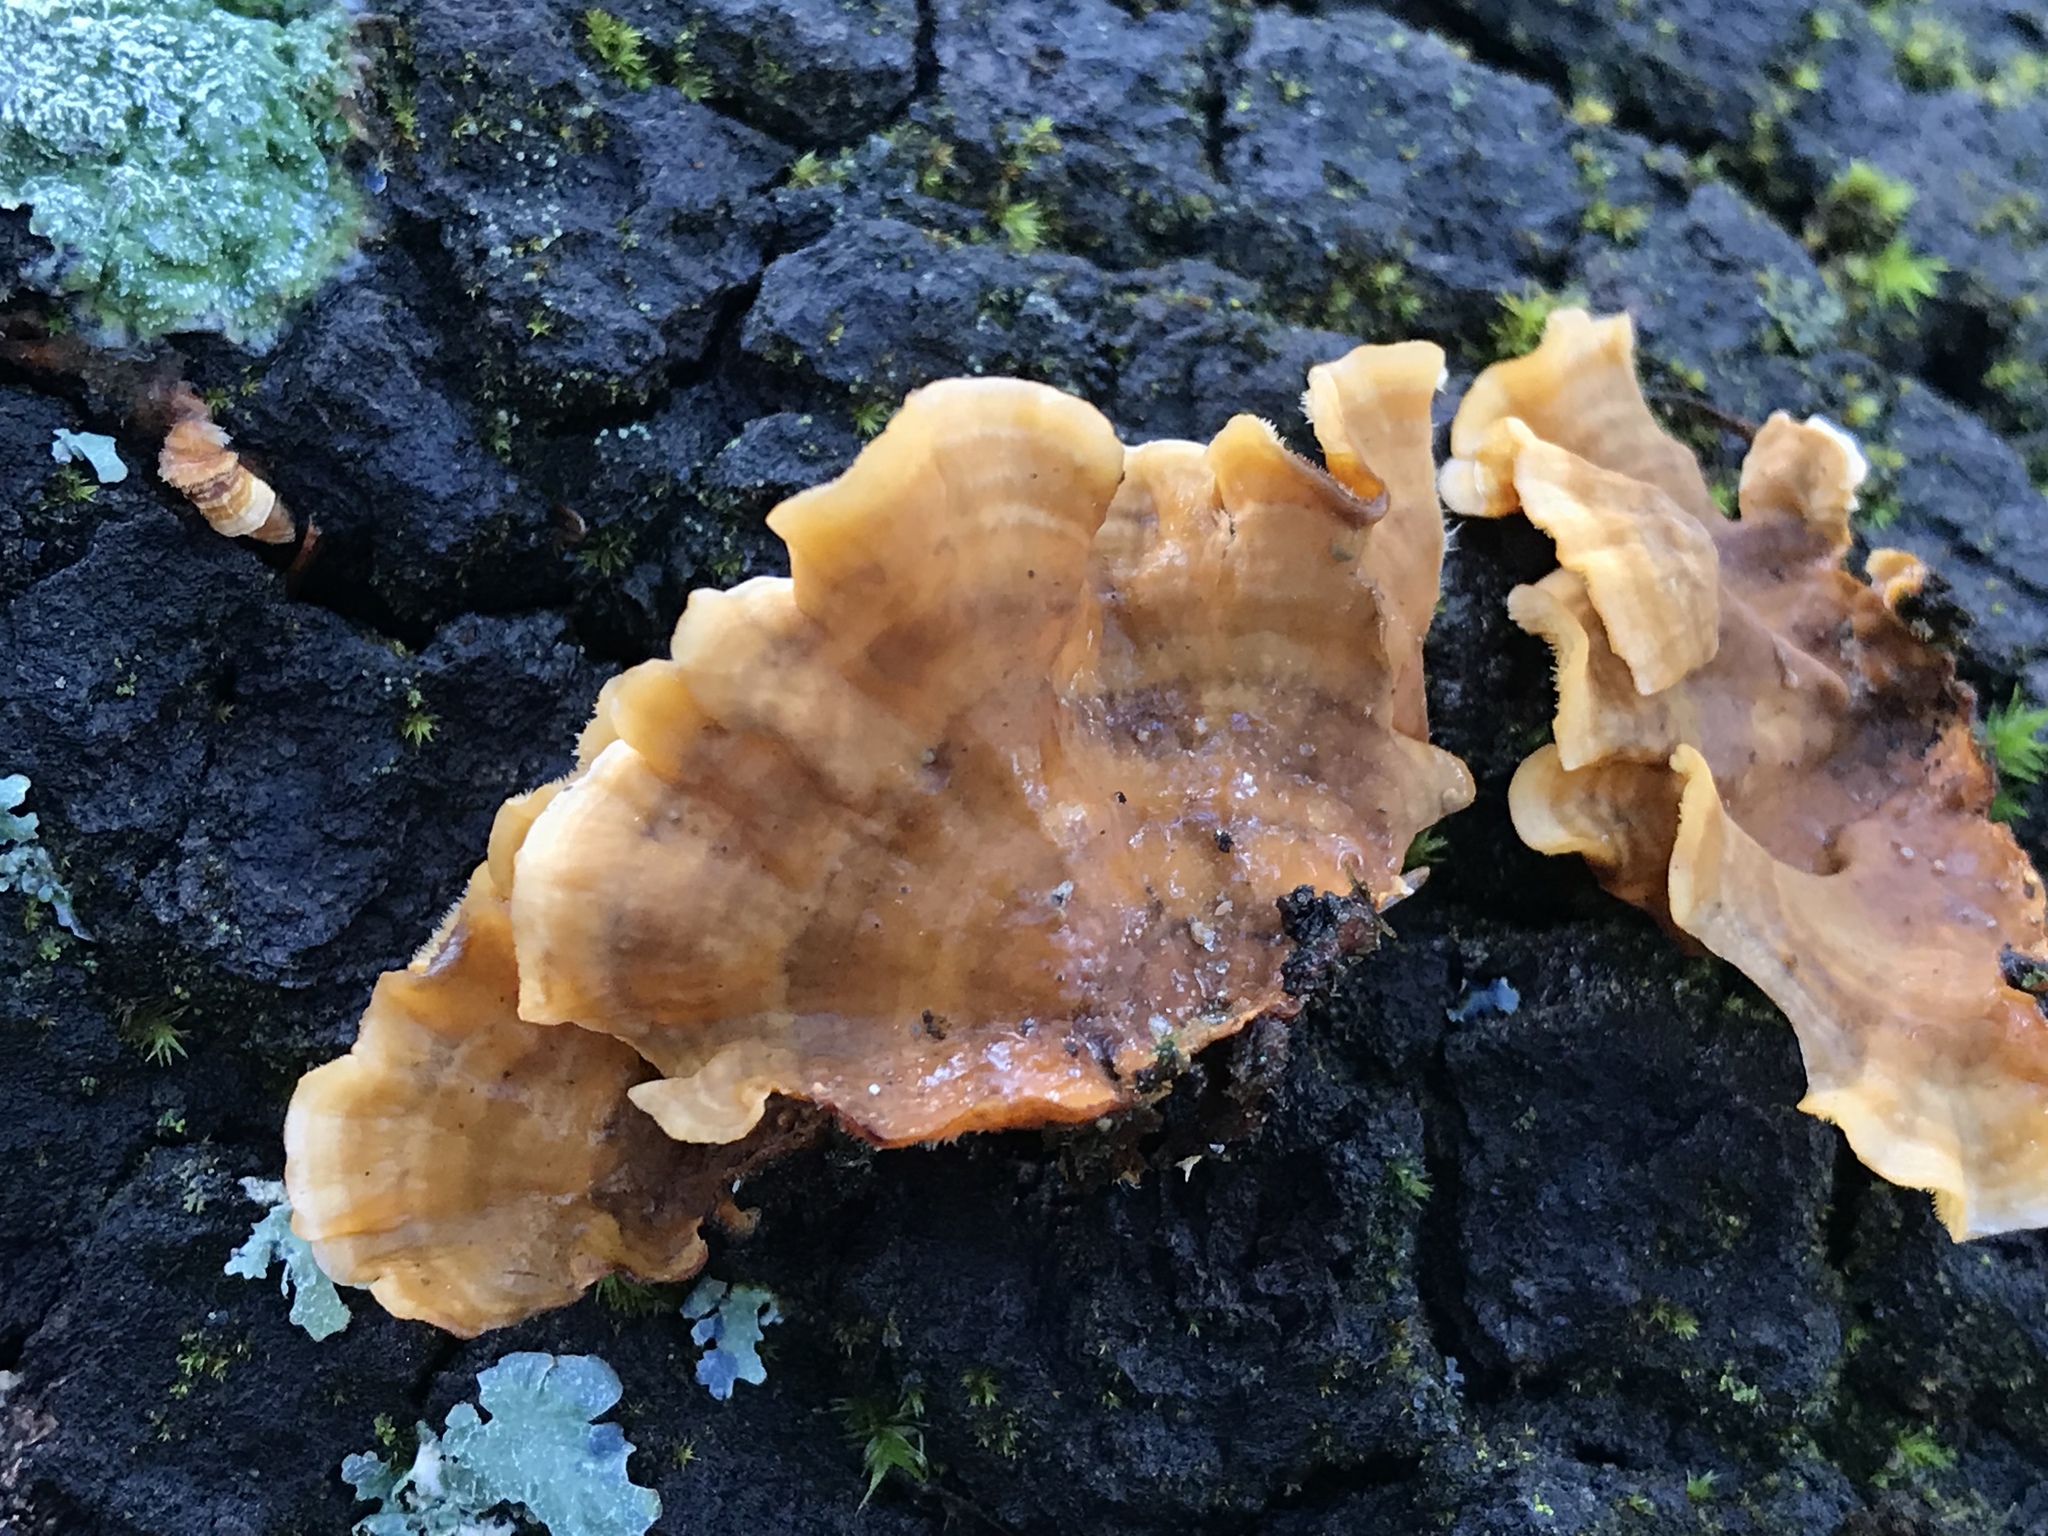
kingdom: Fungi
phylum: Basidiomycota
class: Agaricomycetes
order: Russulales
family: Stereaceae
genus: Stereum
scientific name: Stereum hirsutum
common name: Hairy curtain crust
